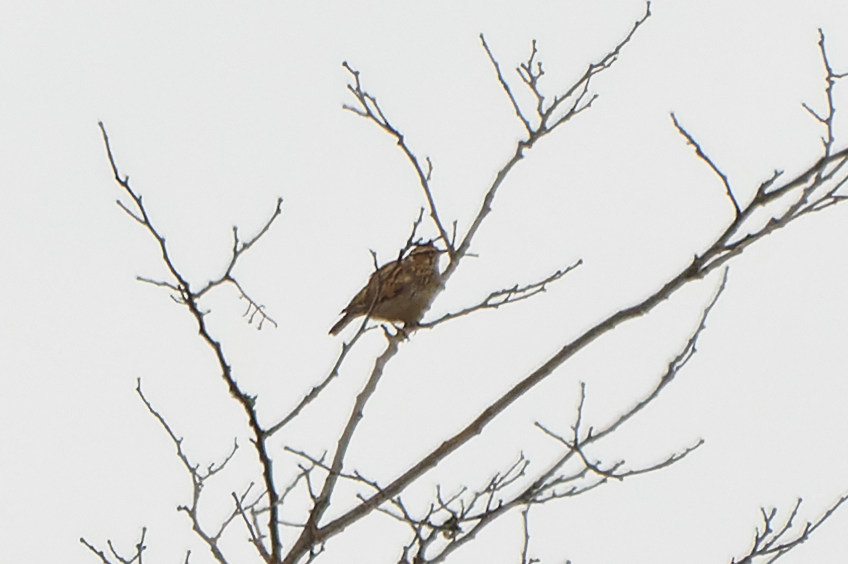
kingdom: Animalia
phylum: Chordata
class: Aves
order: Passeriformes
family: Alaudidae
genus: Lullula
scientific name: Lullula arborea
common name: Woodlark
